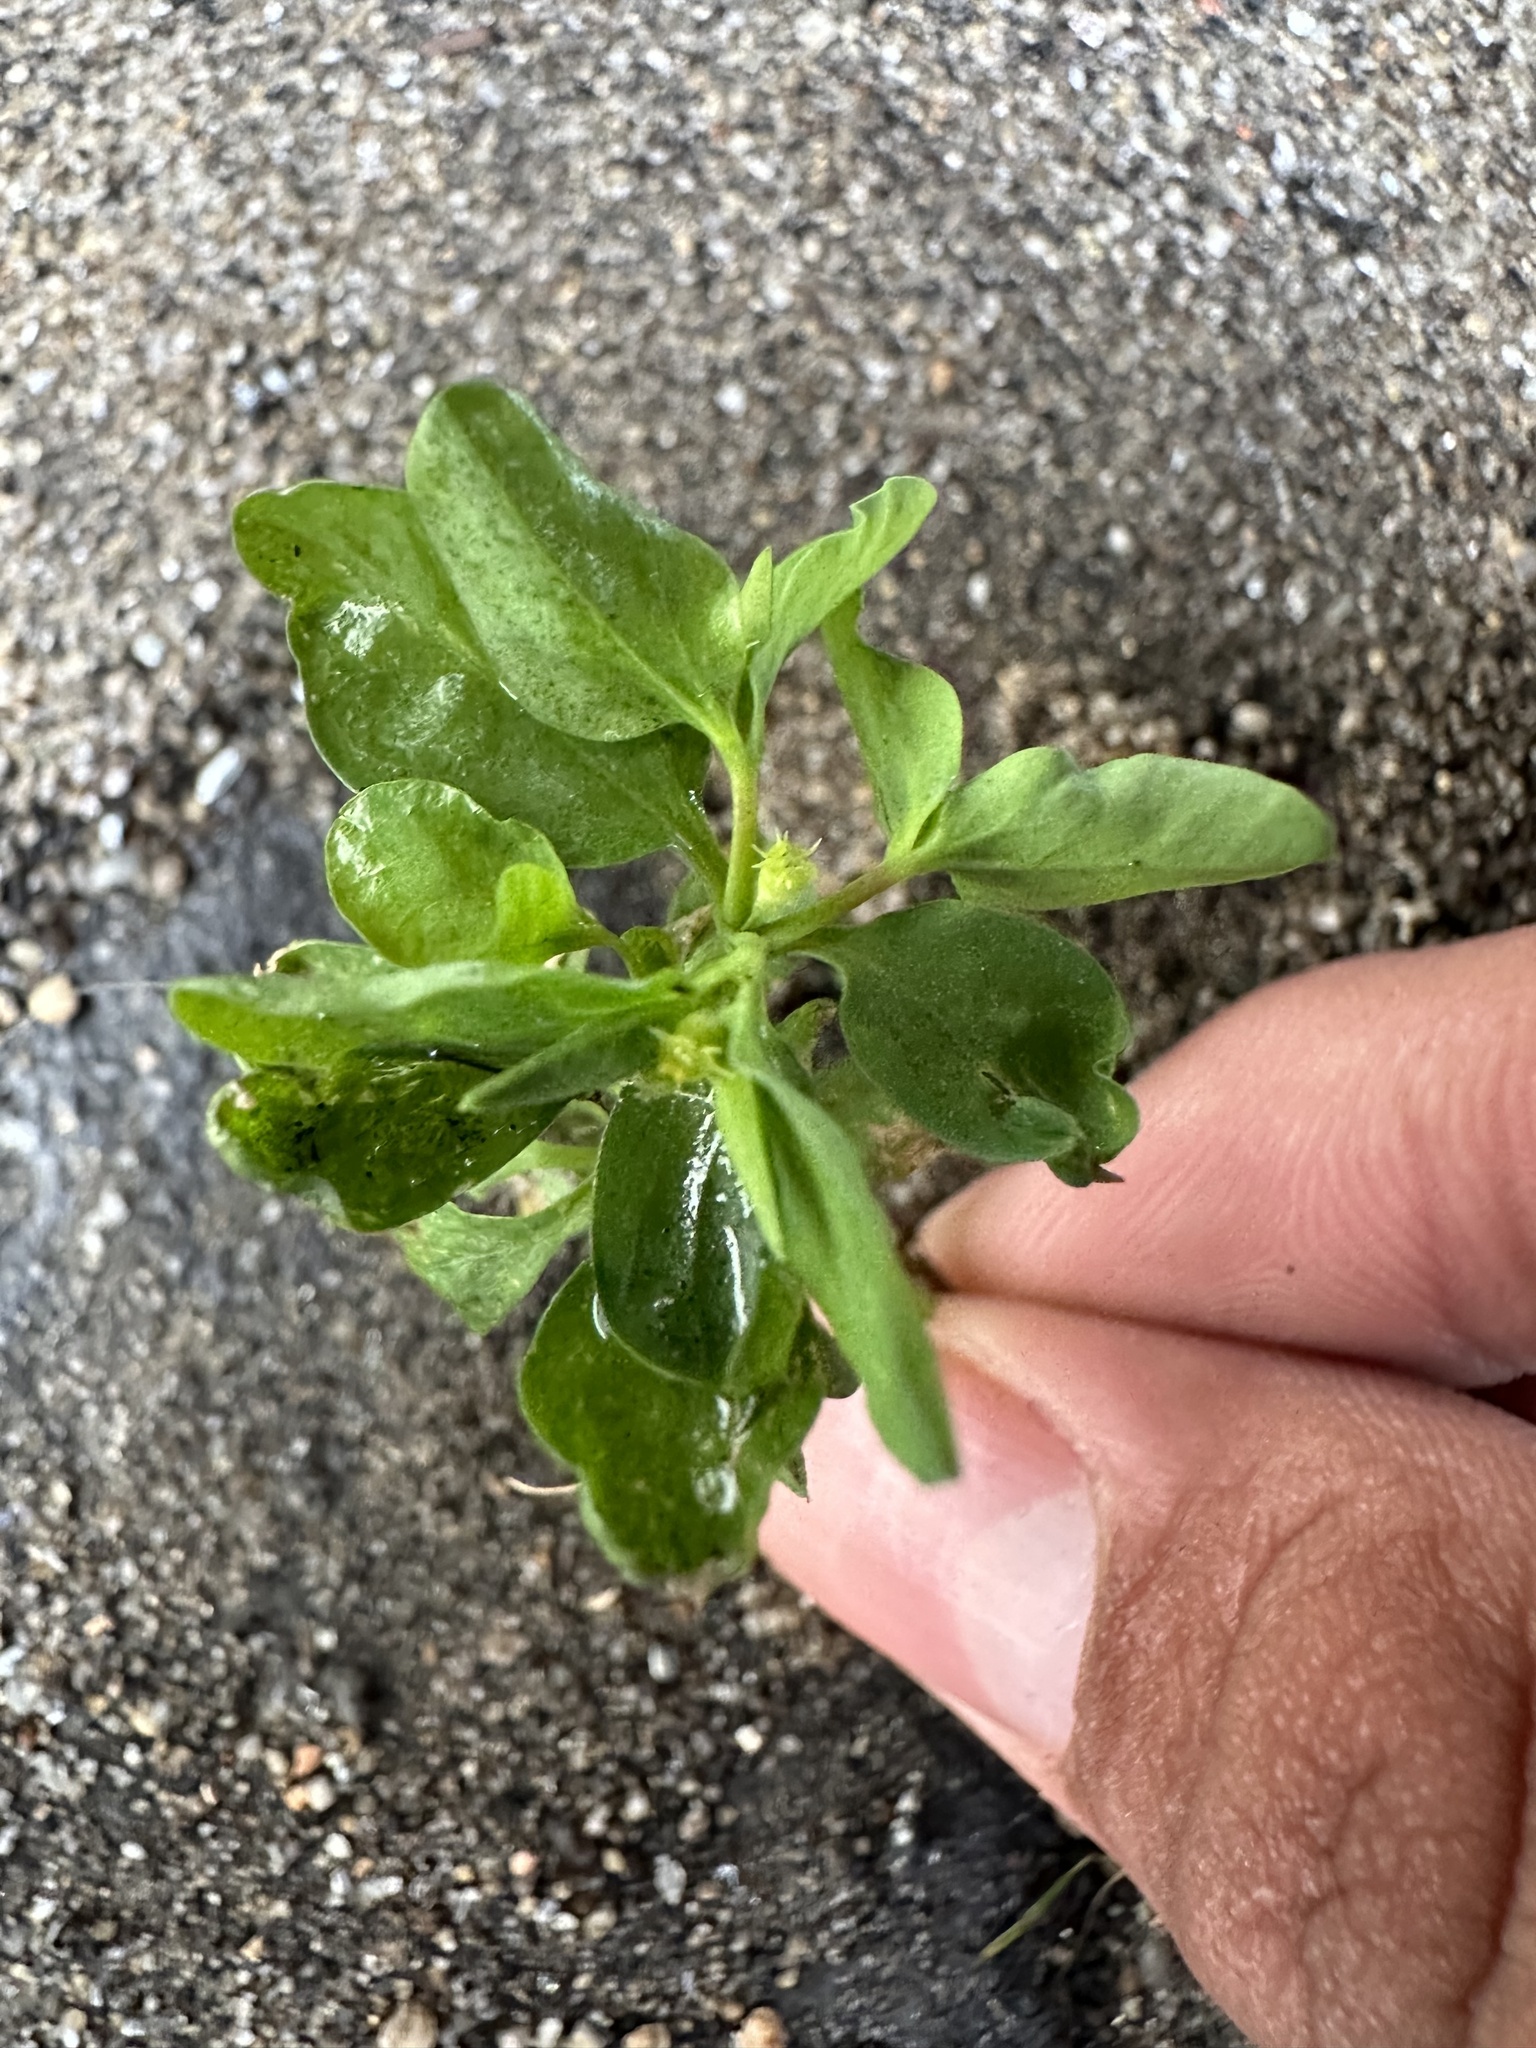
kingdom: Plantae
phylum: Tracheophyta
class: Magnoliopsida
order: Malpighiales
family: Euphorbiaceae
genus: Euphorbia
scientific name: Euphorbia peplus
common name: Petty spurge
